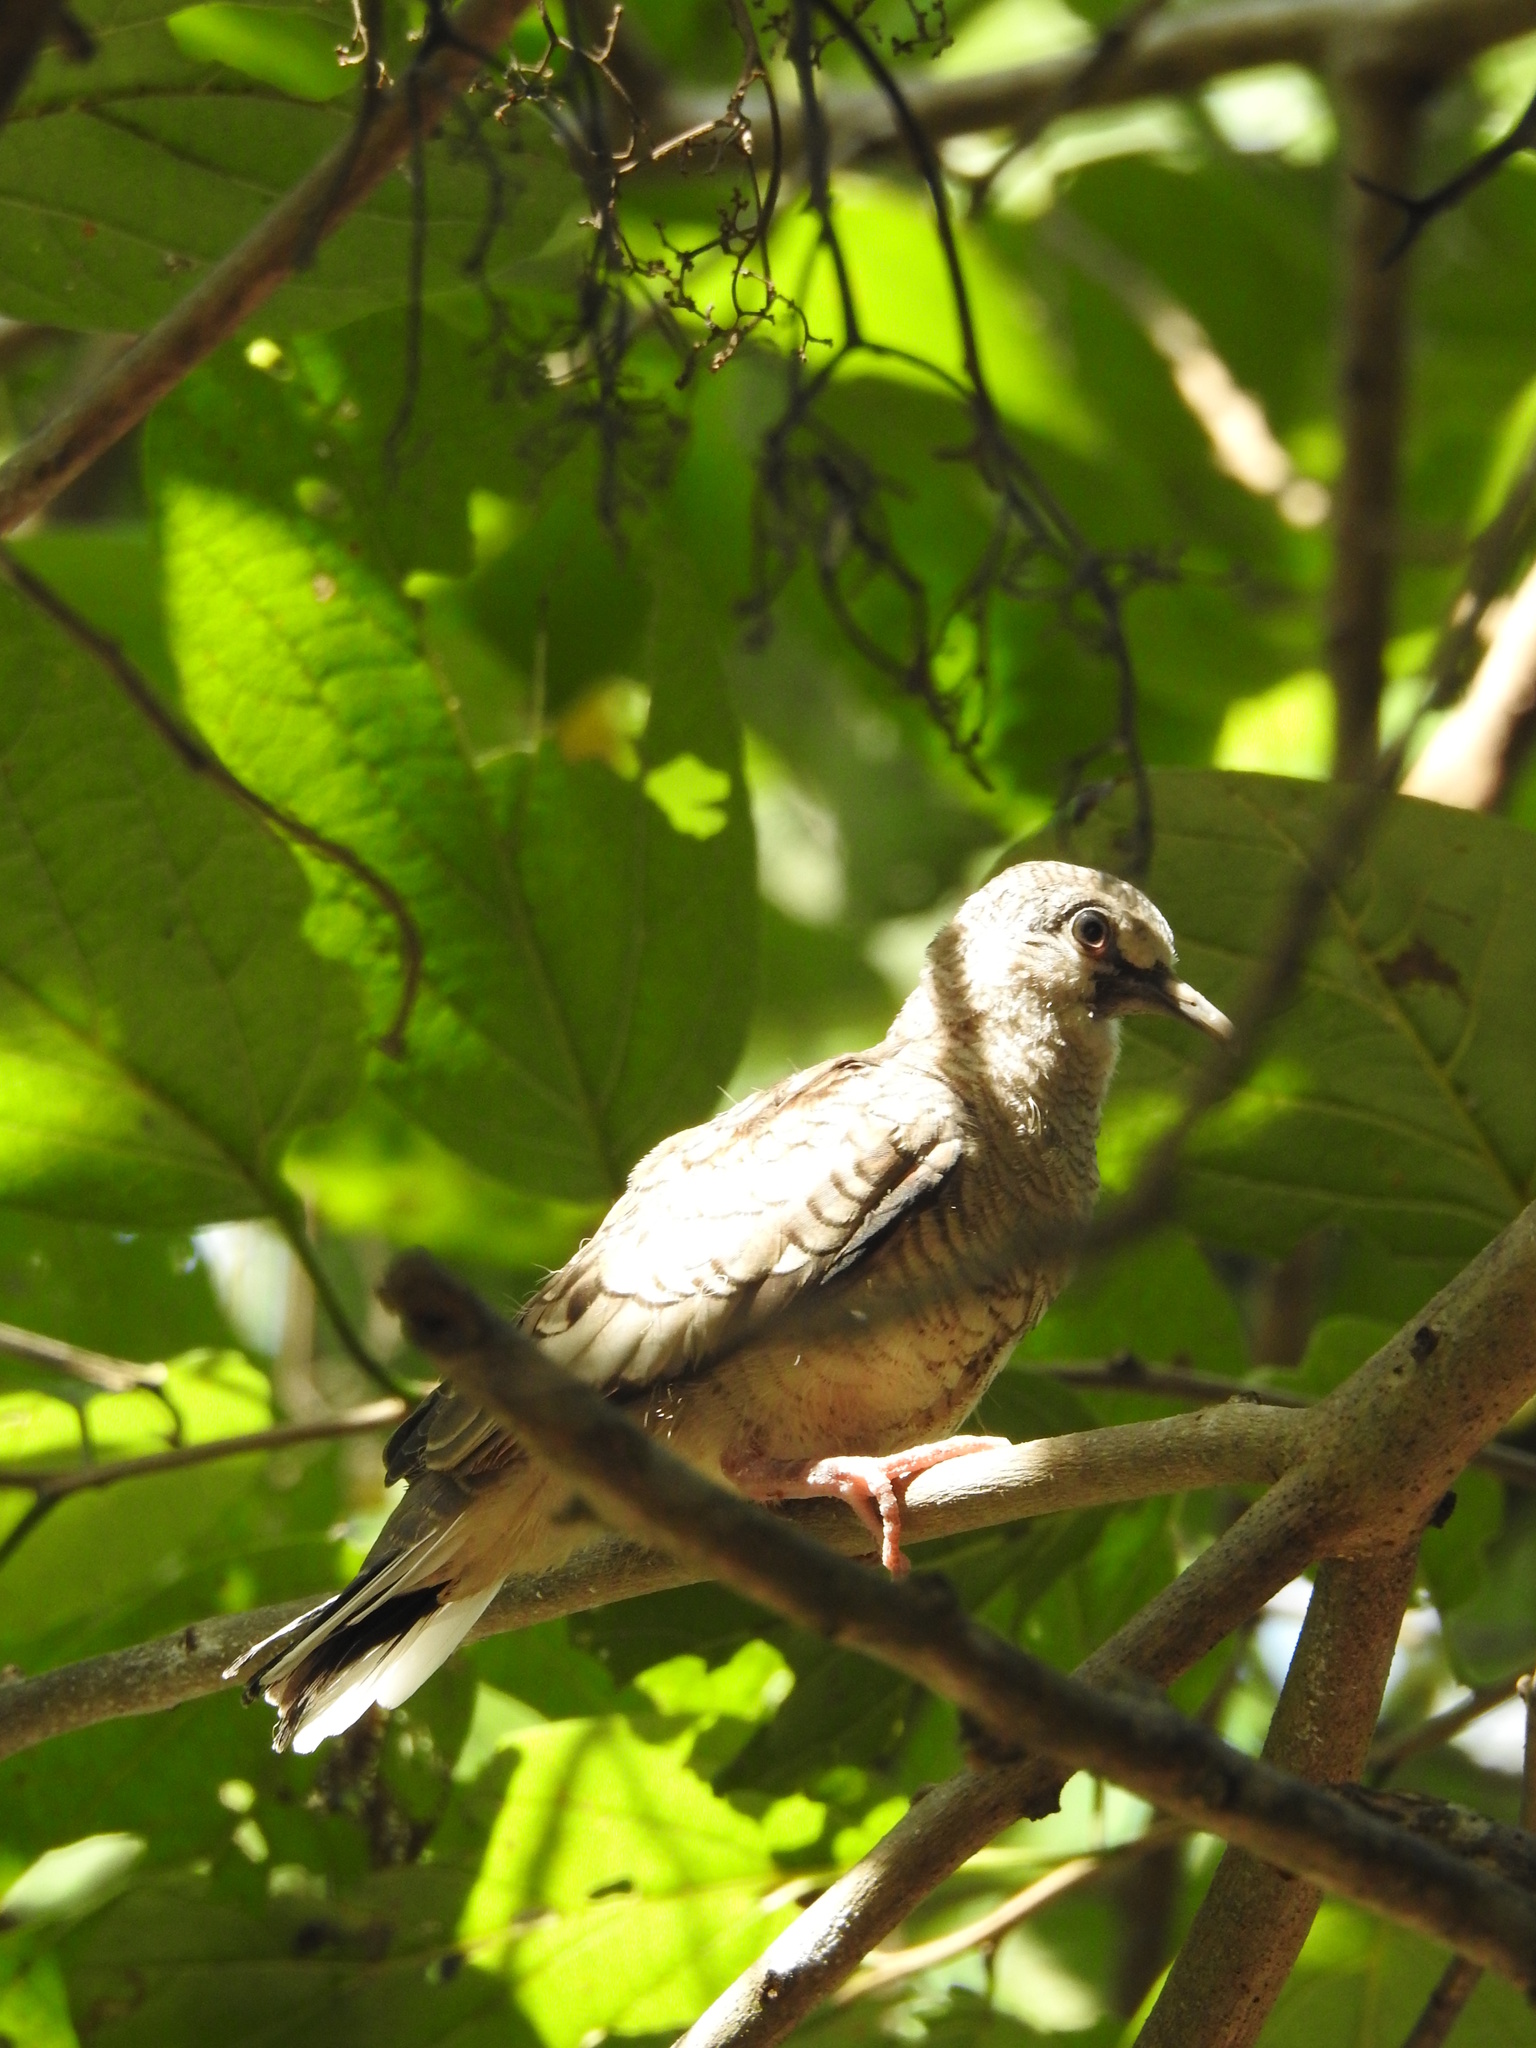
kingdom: Animalia
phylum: Chordata
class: Aves
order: Columbiformes
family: Columbidae
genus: Columbina
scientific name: Columbina inca
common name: Inca dove
